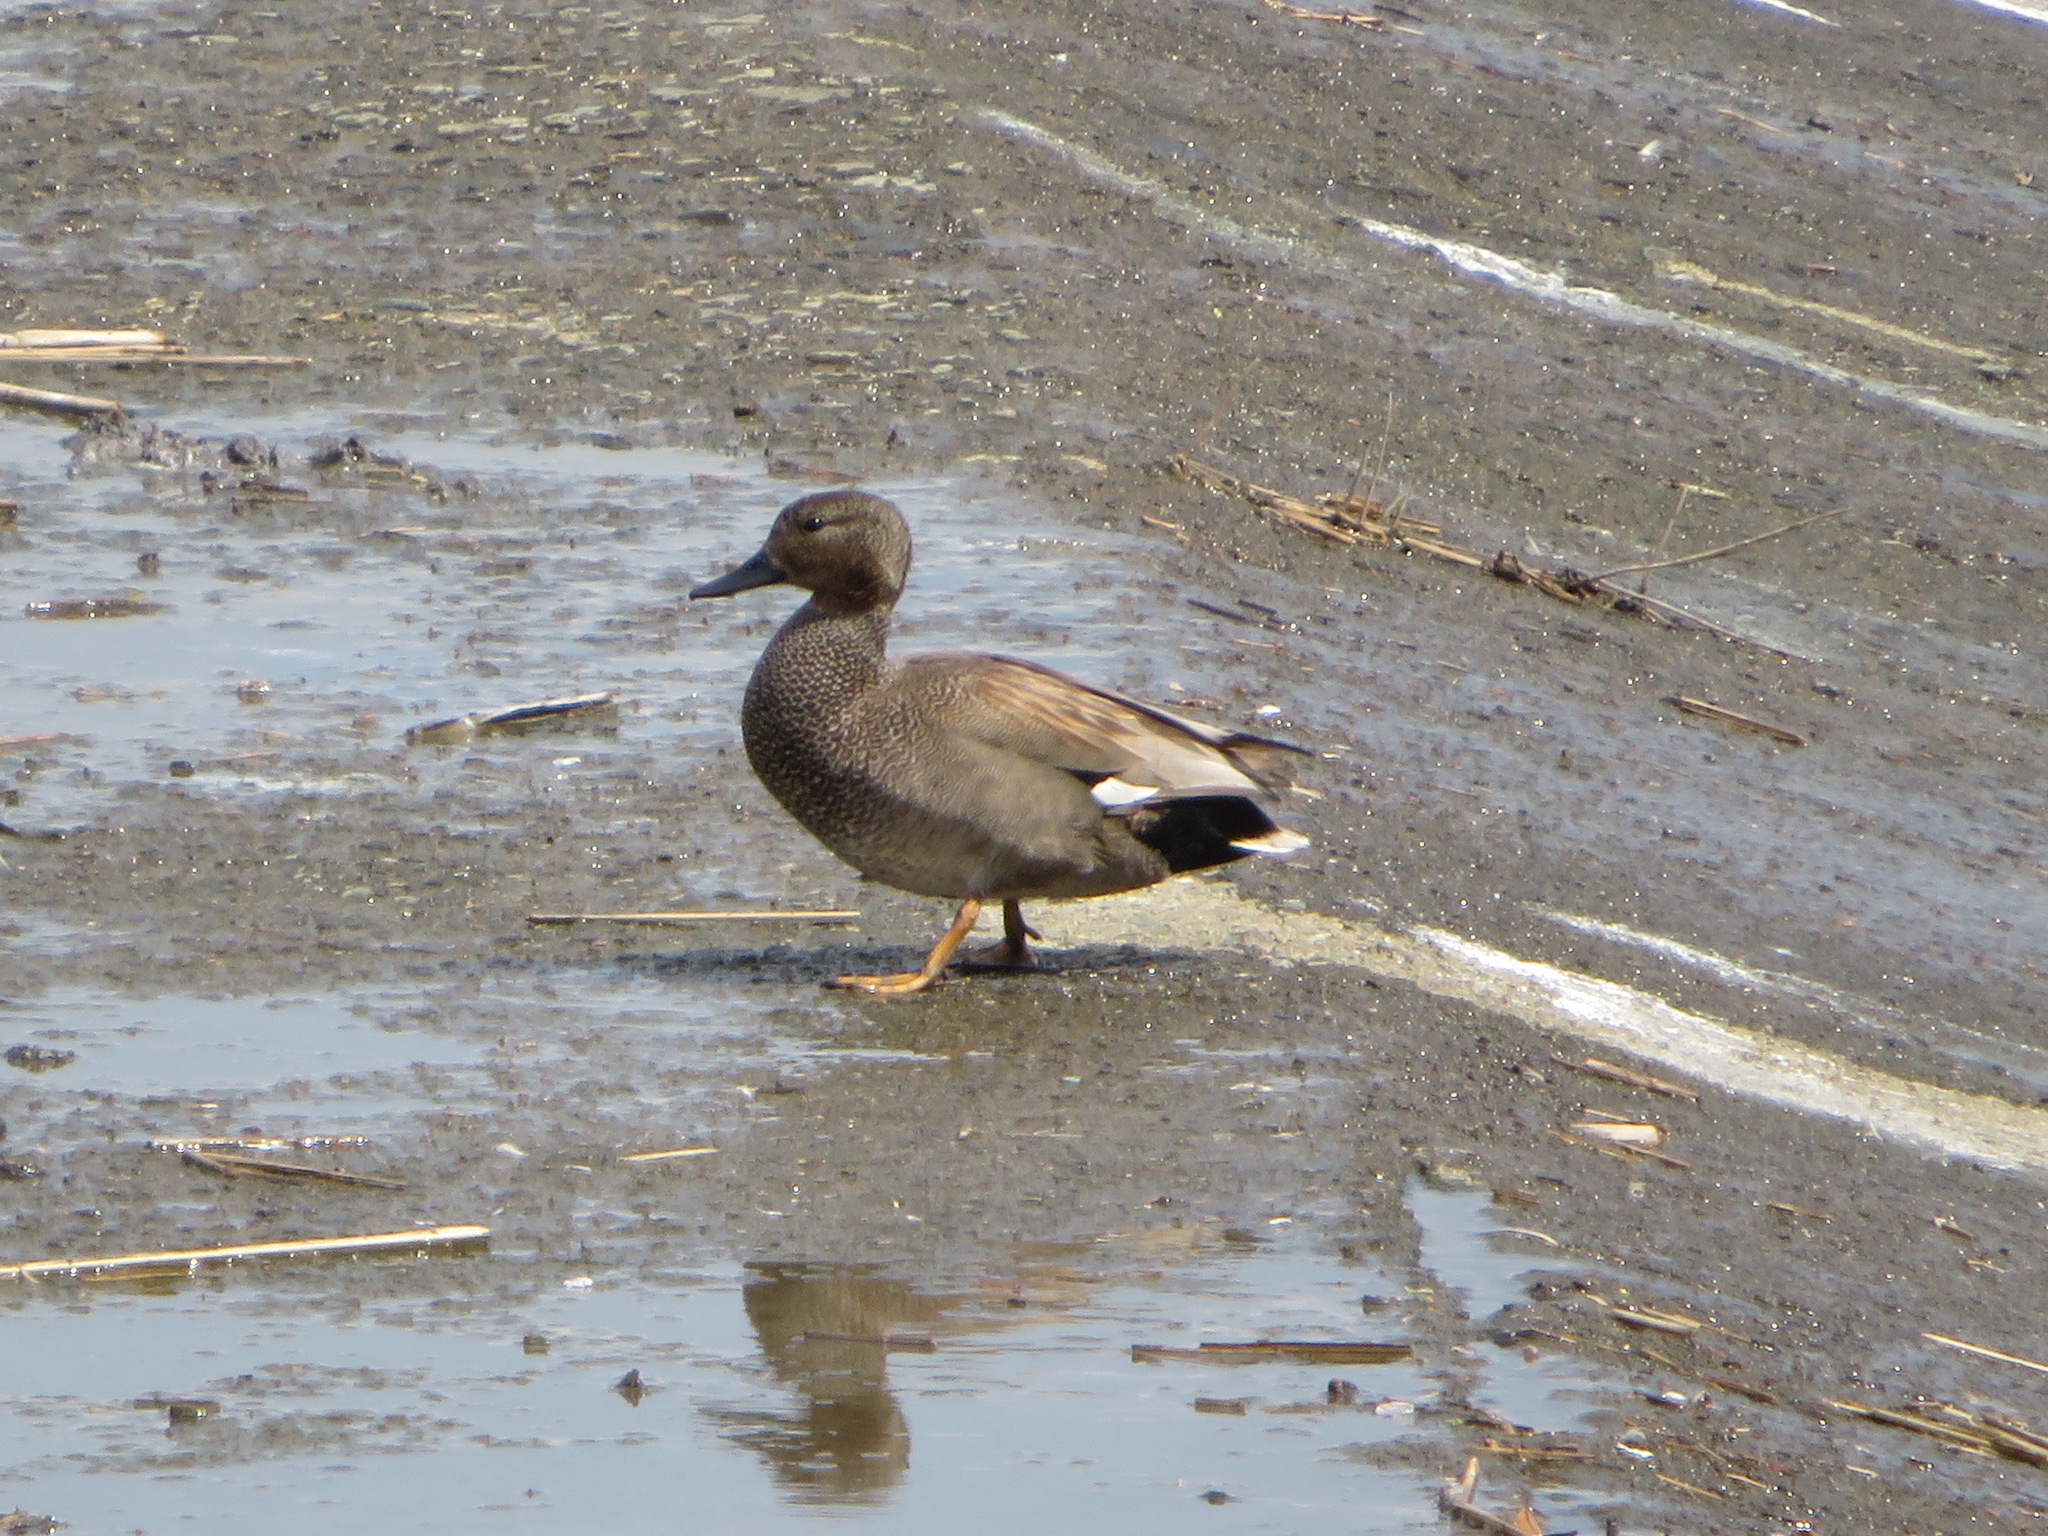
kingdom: Animalia
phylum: Chordata
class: Aves
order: Anseriformes
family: Anatidae
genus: Mareca
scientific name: Mareca strepera
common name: Gadwall
